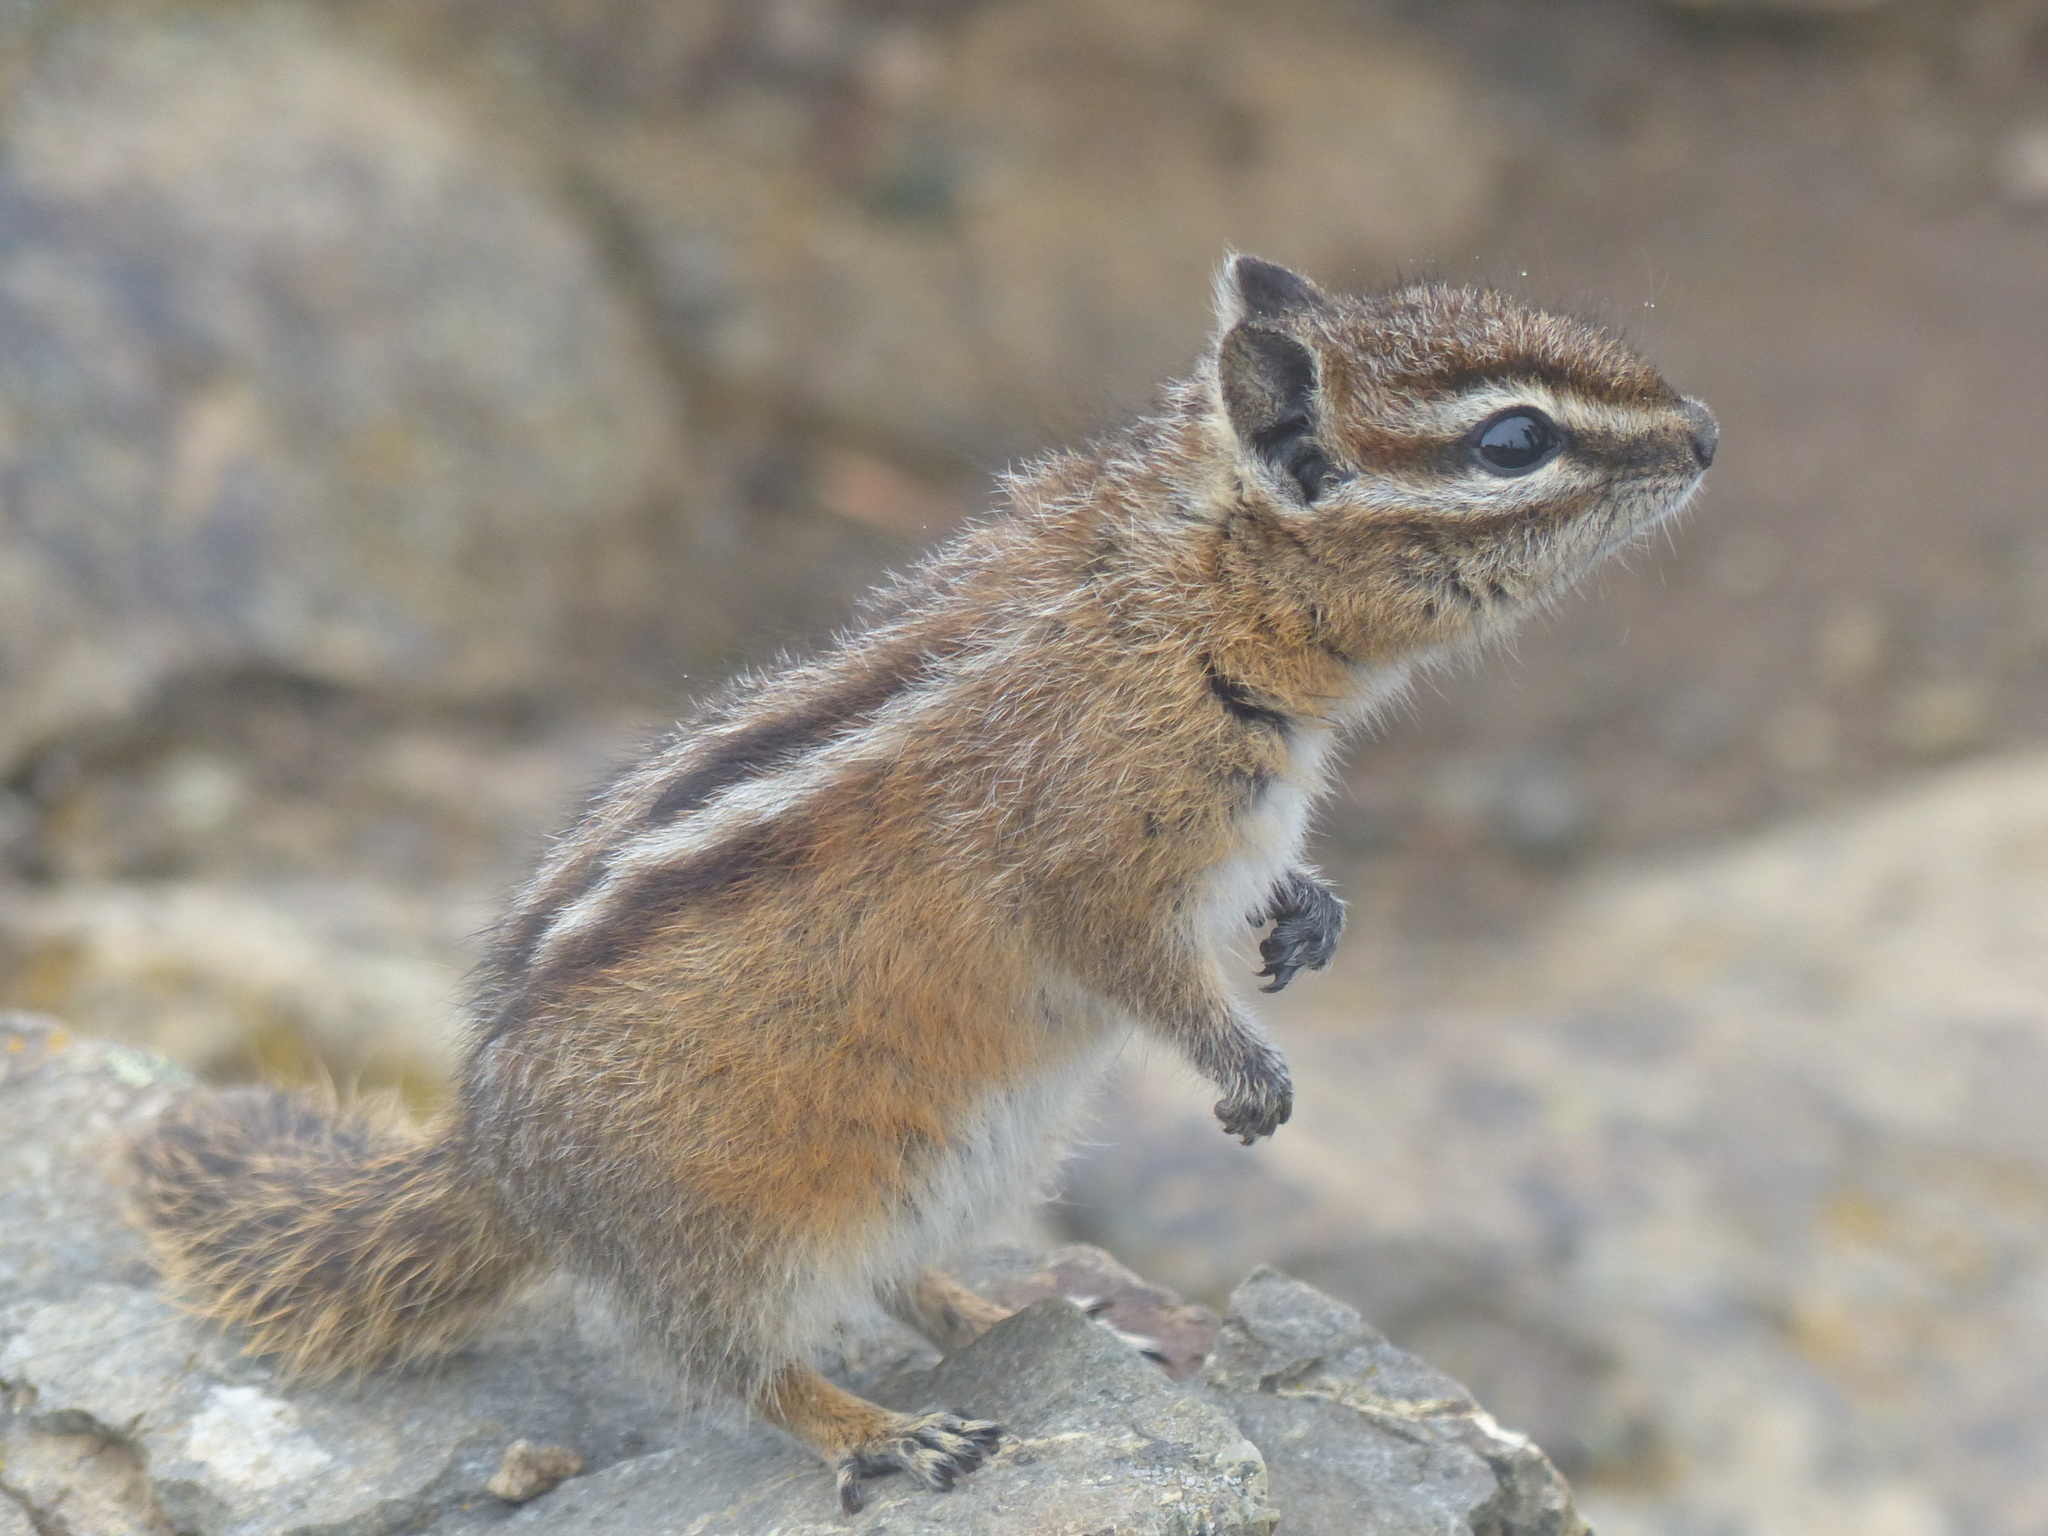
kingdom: Animalia
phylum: Chordata
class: Mammalia
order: Rodentia
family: Sciuridae
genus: Tamias
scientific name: Tamias amoenus
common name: Yellow-pine chipmunk
